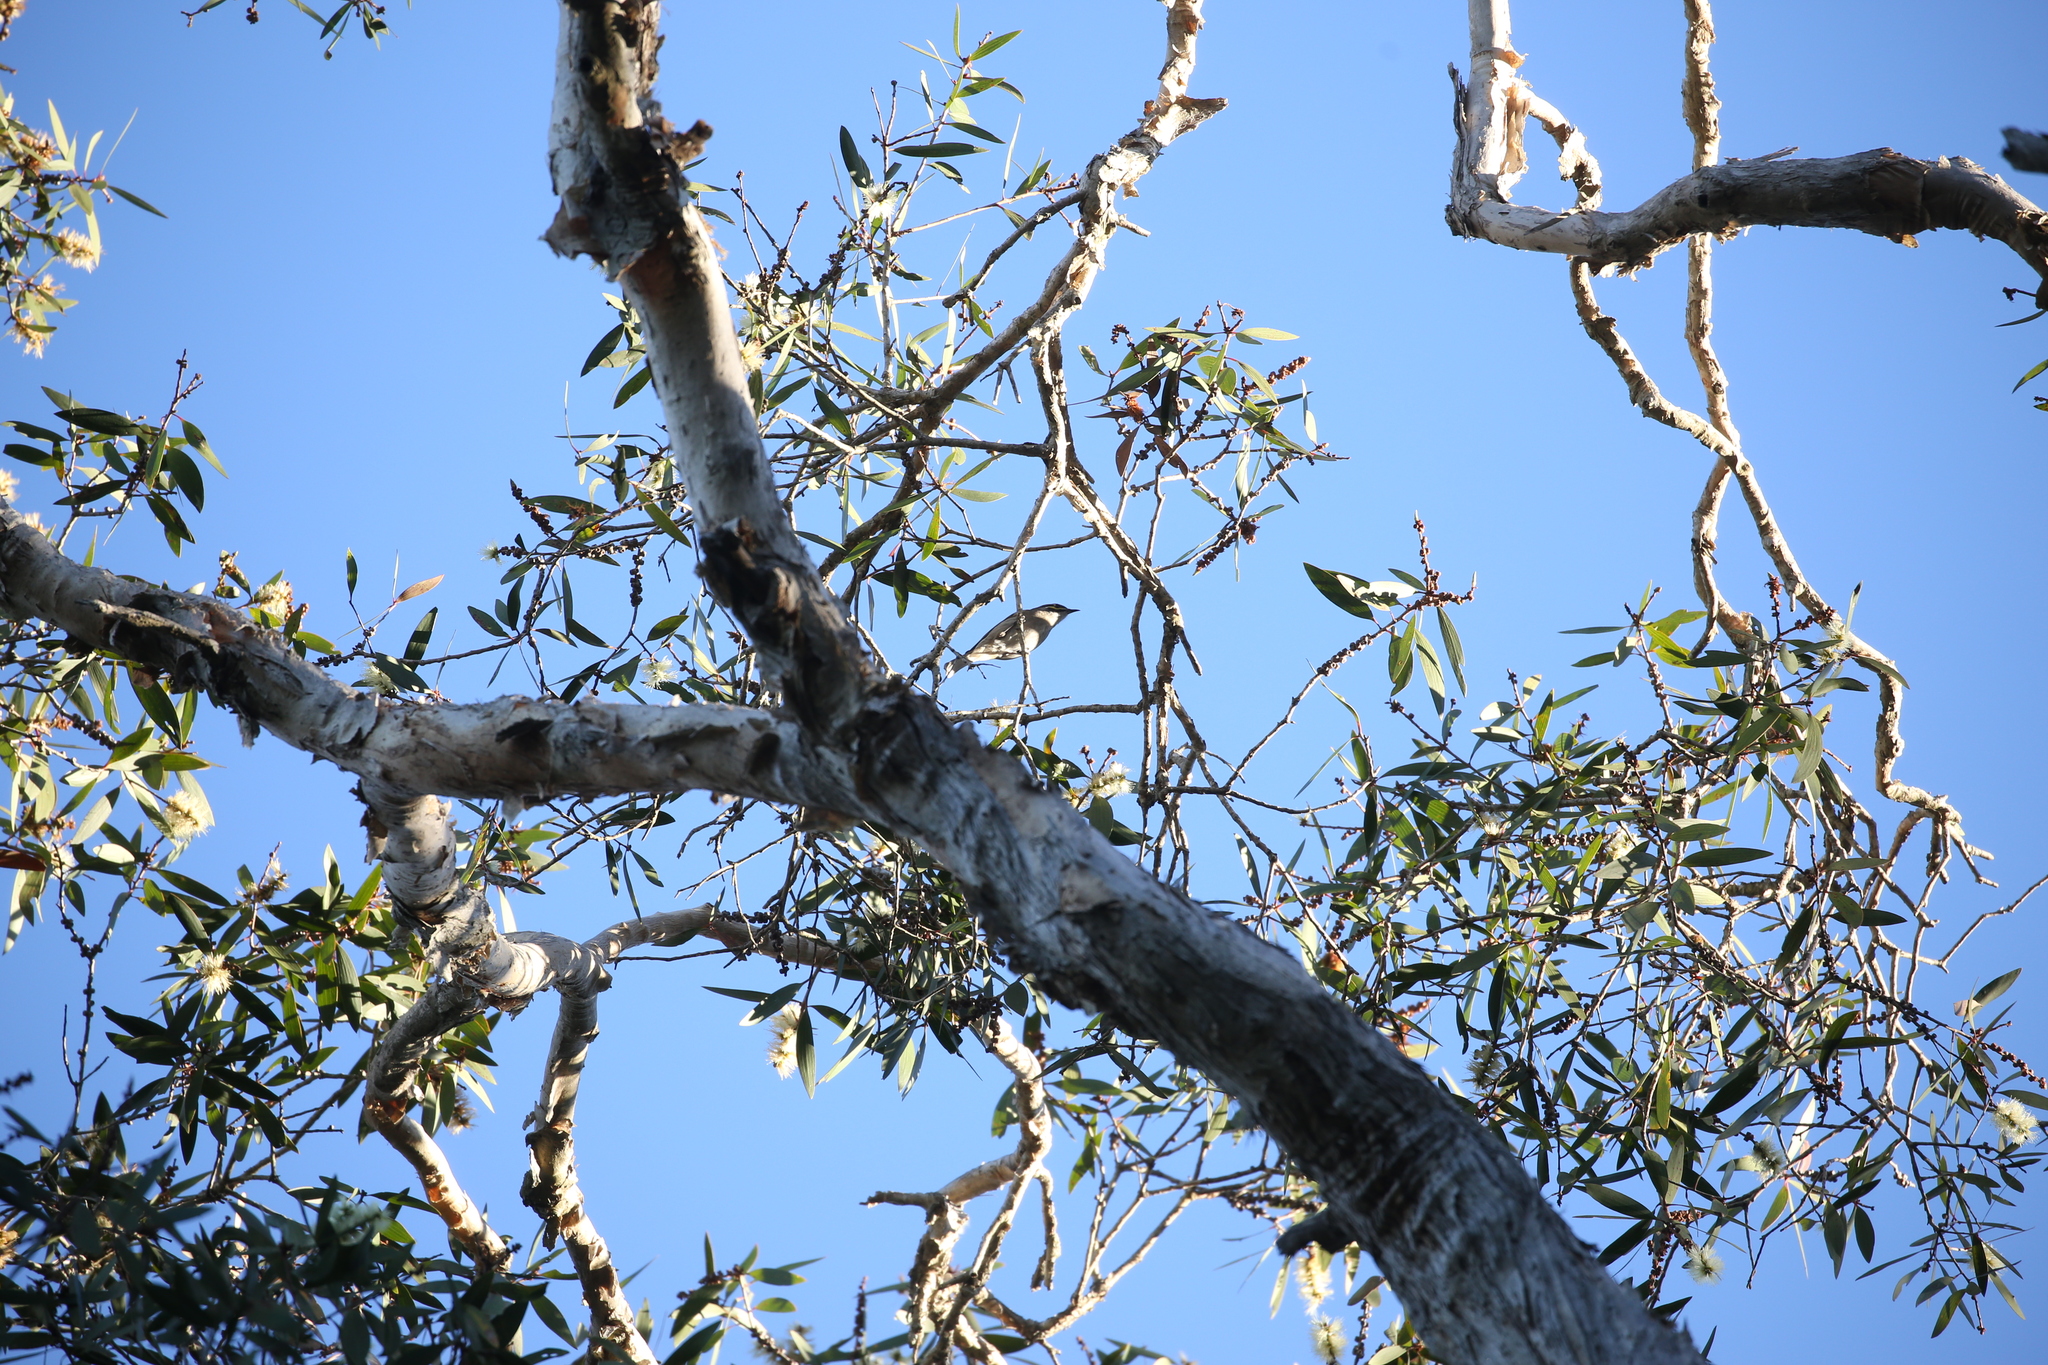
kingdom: Animalia
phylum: Chordata
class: Aves
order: Passeriformes
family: Meliphagidae
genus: Caligavis
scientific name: Caligavis chrysops
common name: Yellow-faced honeyeater
